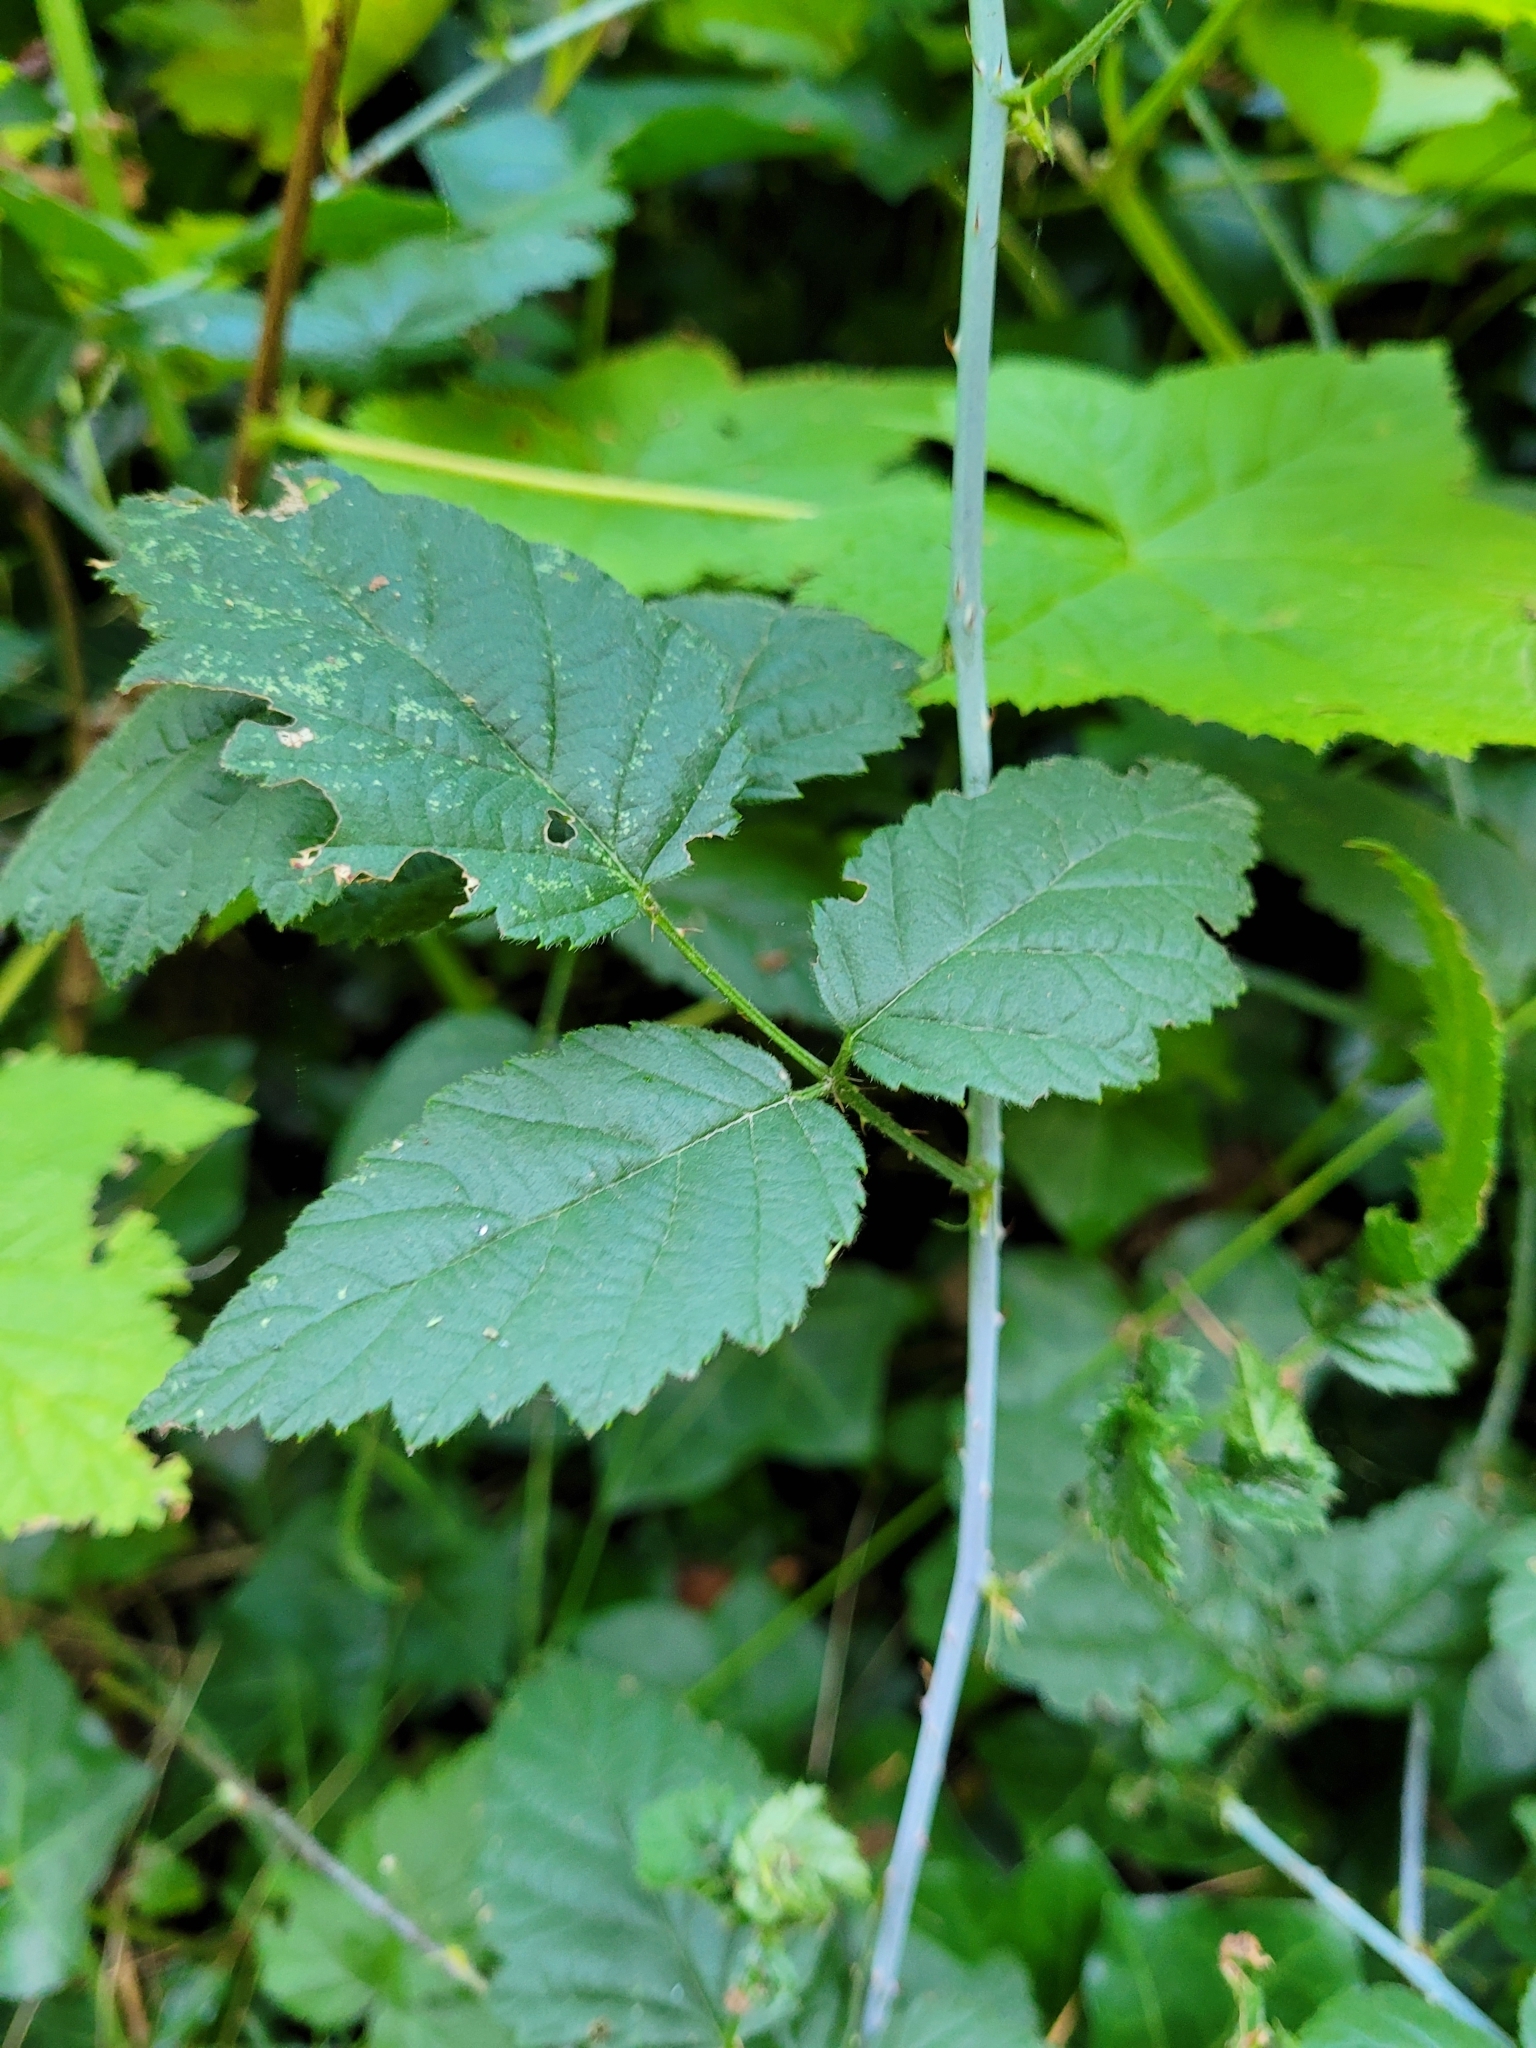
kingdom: Plantae
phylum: Tracheophyta
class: Magnoliopsida
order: Rosales
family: Rosaceae
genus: Rubus
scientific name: Rubus ursinus
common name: Pacific blackberry
